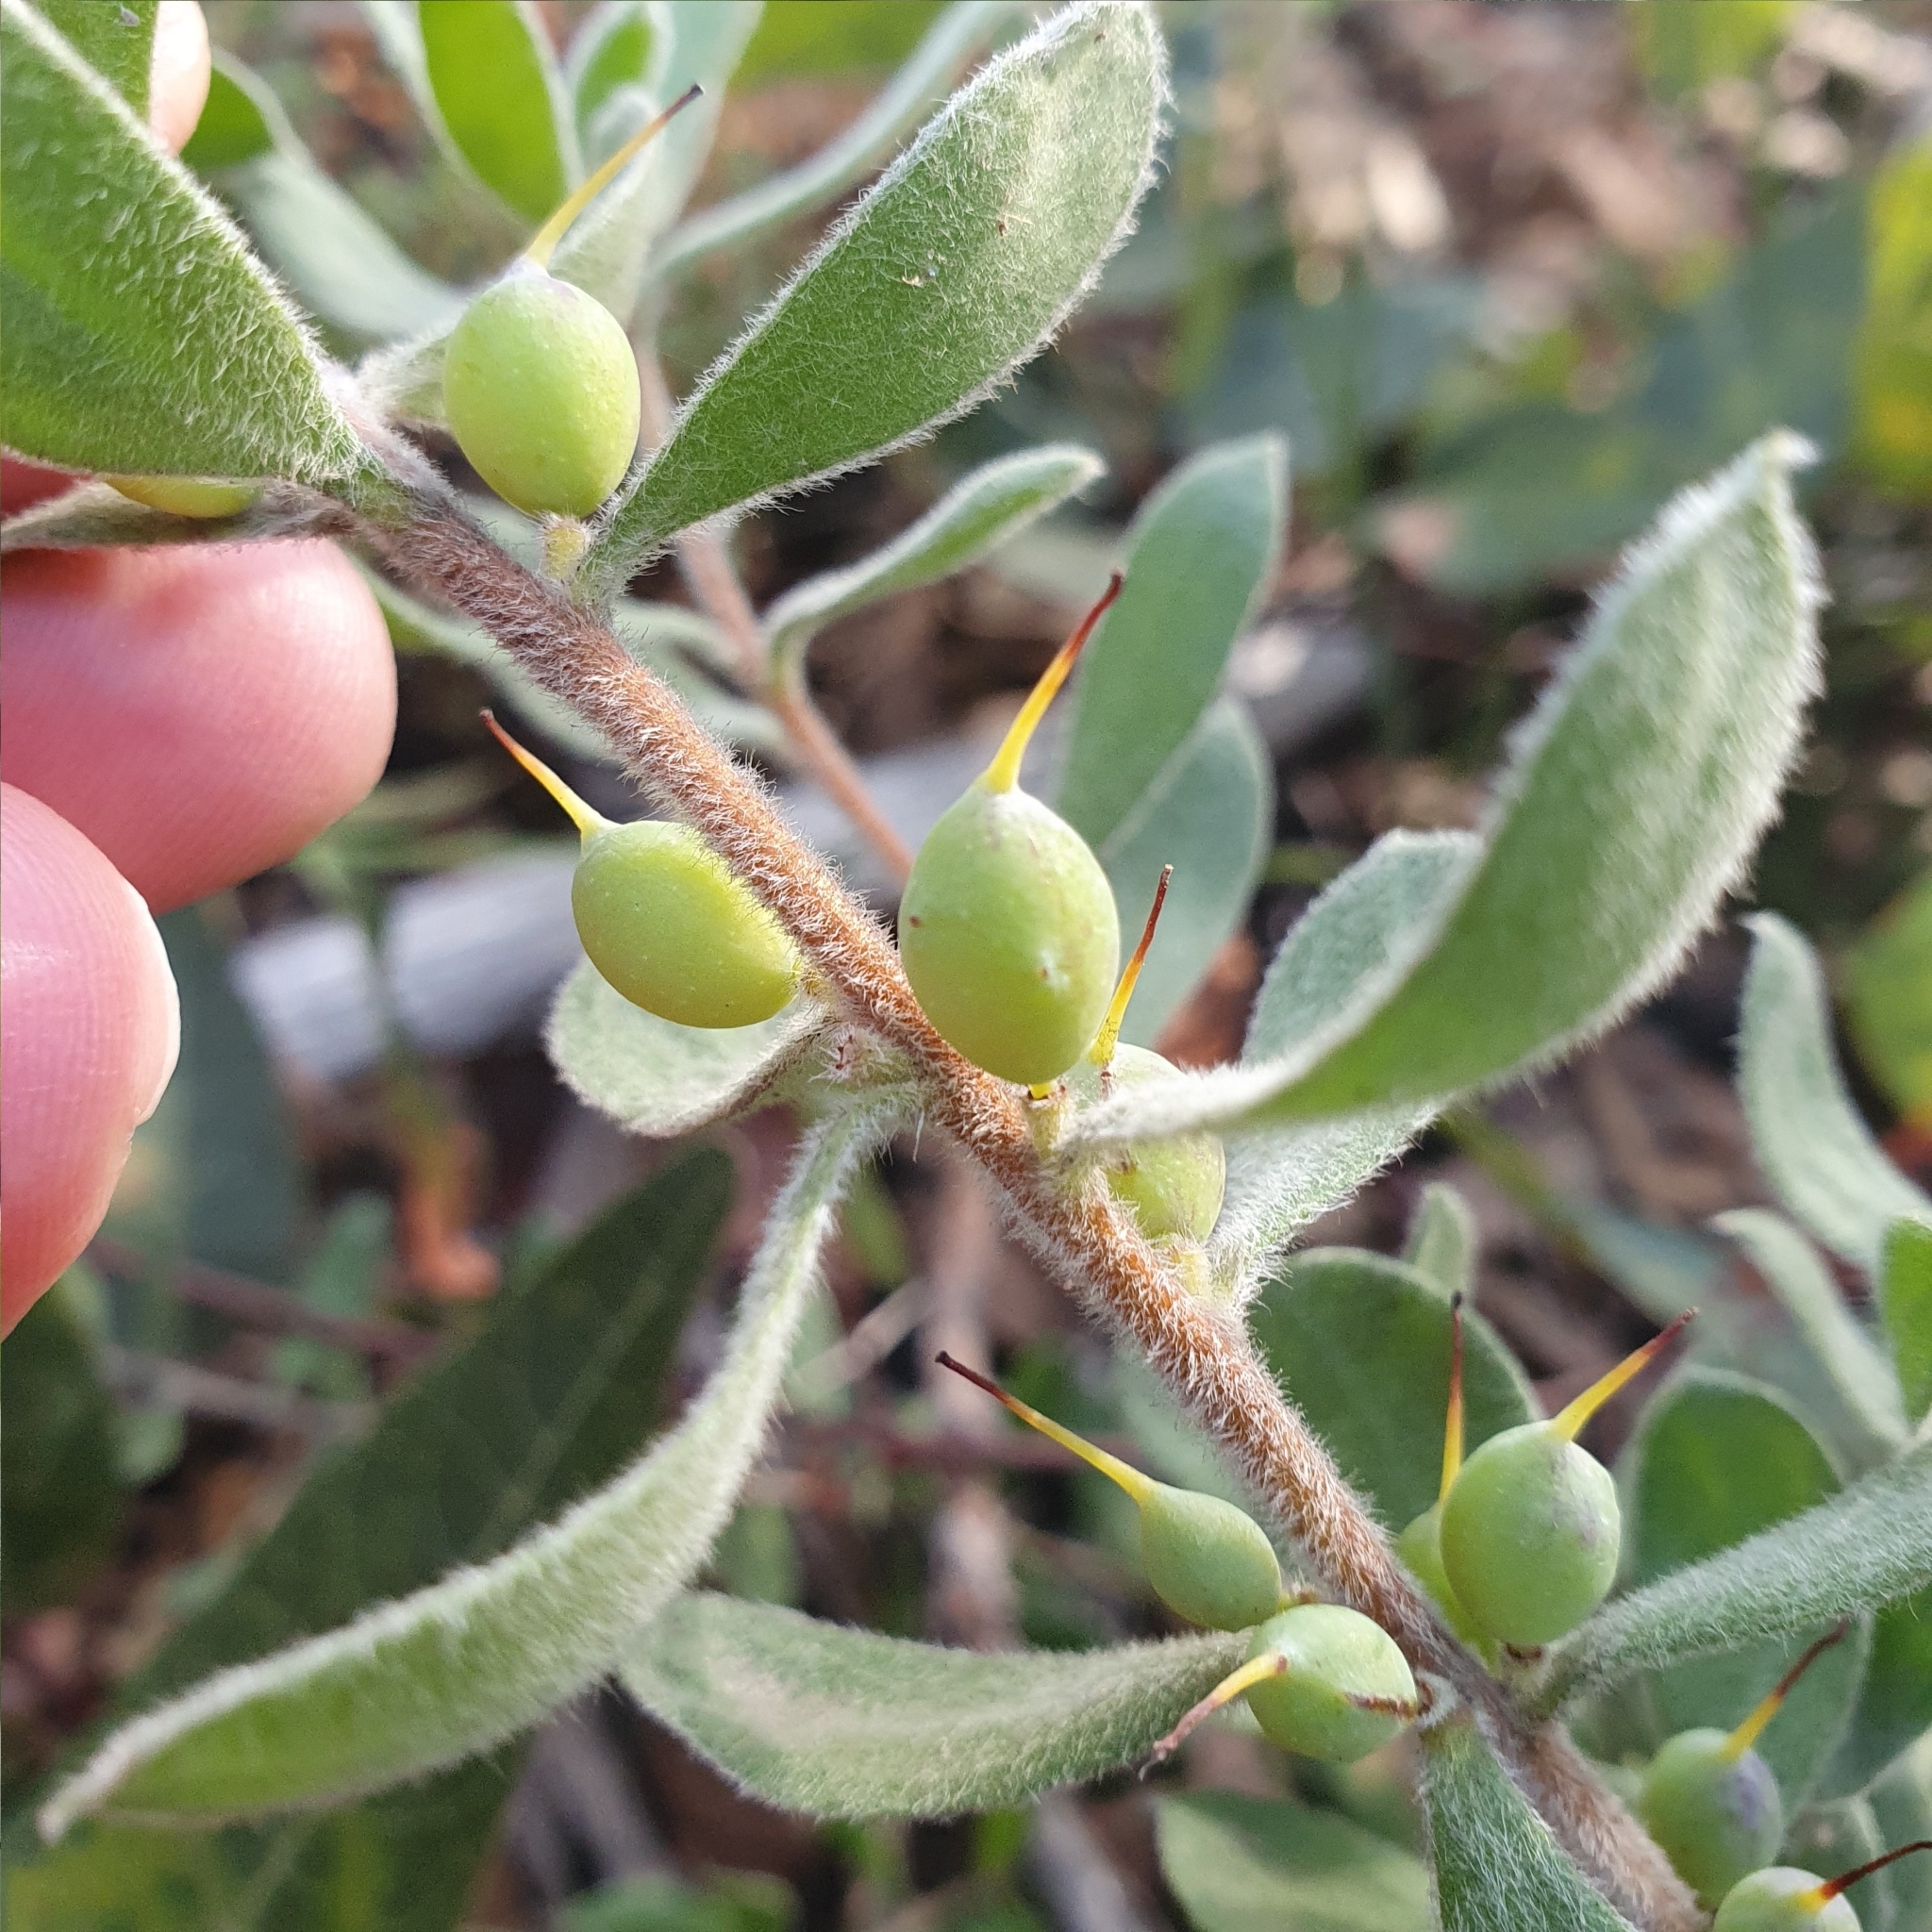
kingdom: Plantae
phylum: Tracheophyta
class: Magnoliopsida
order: Proteales
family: Proteaceae
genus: Persoonia
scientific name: Persoonia rigida
